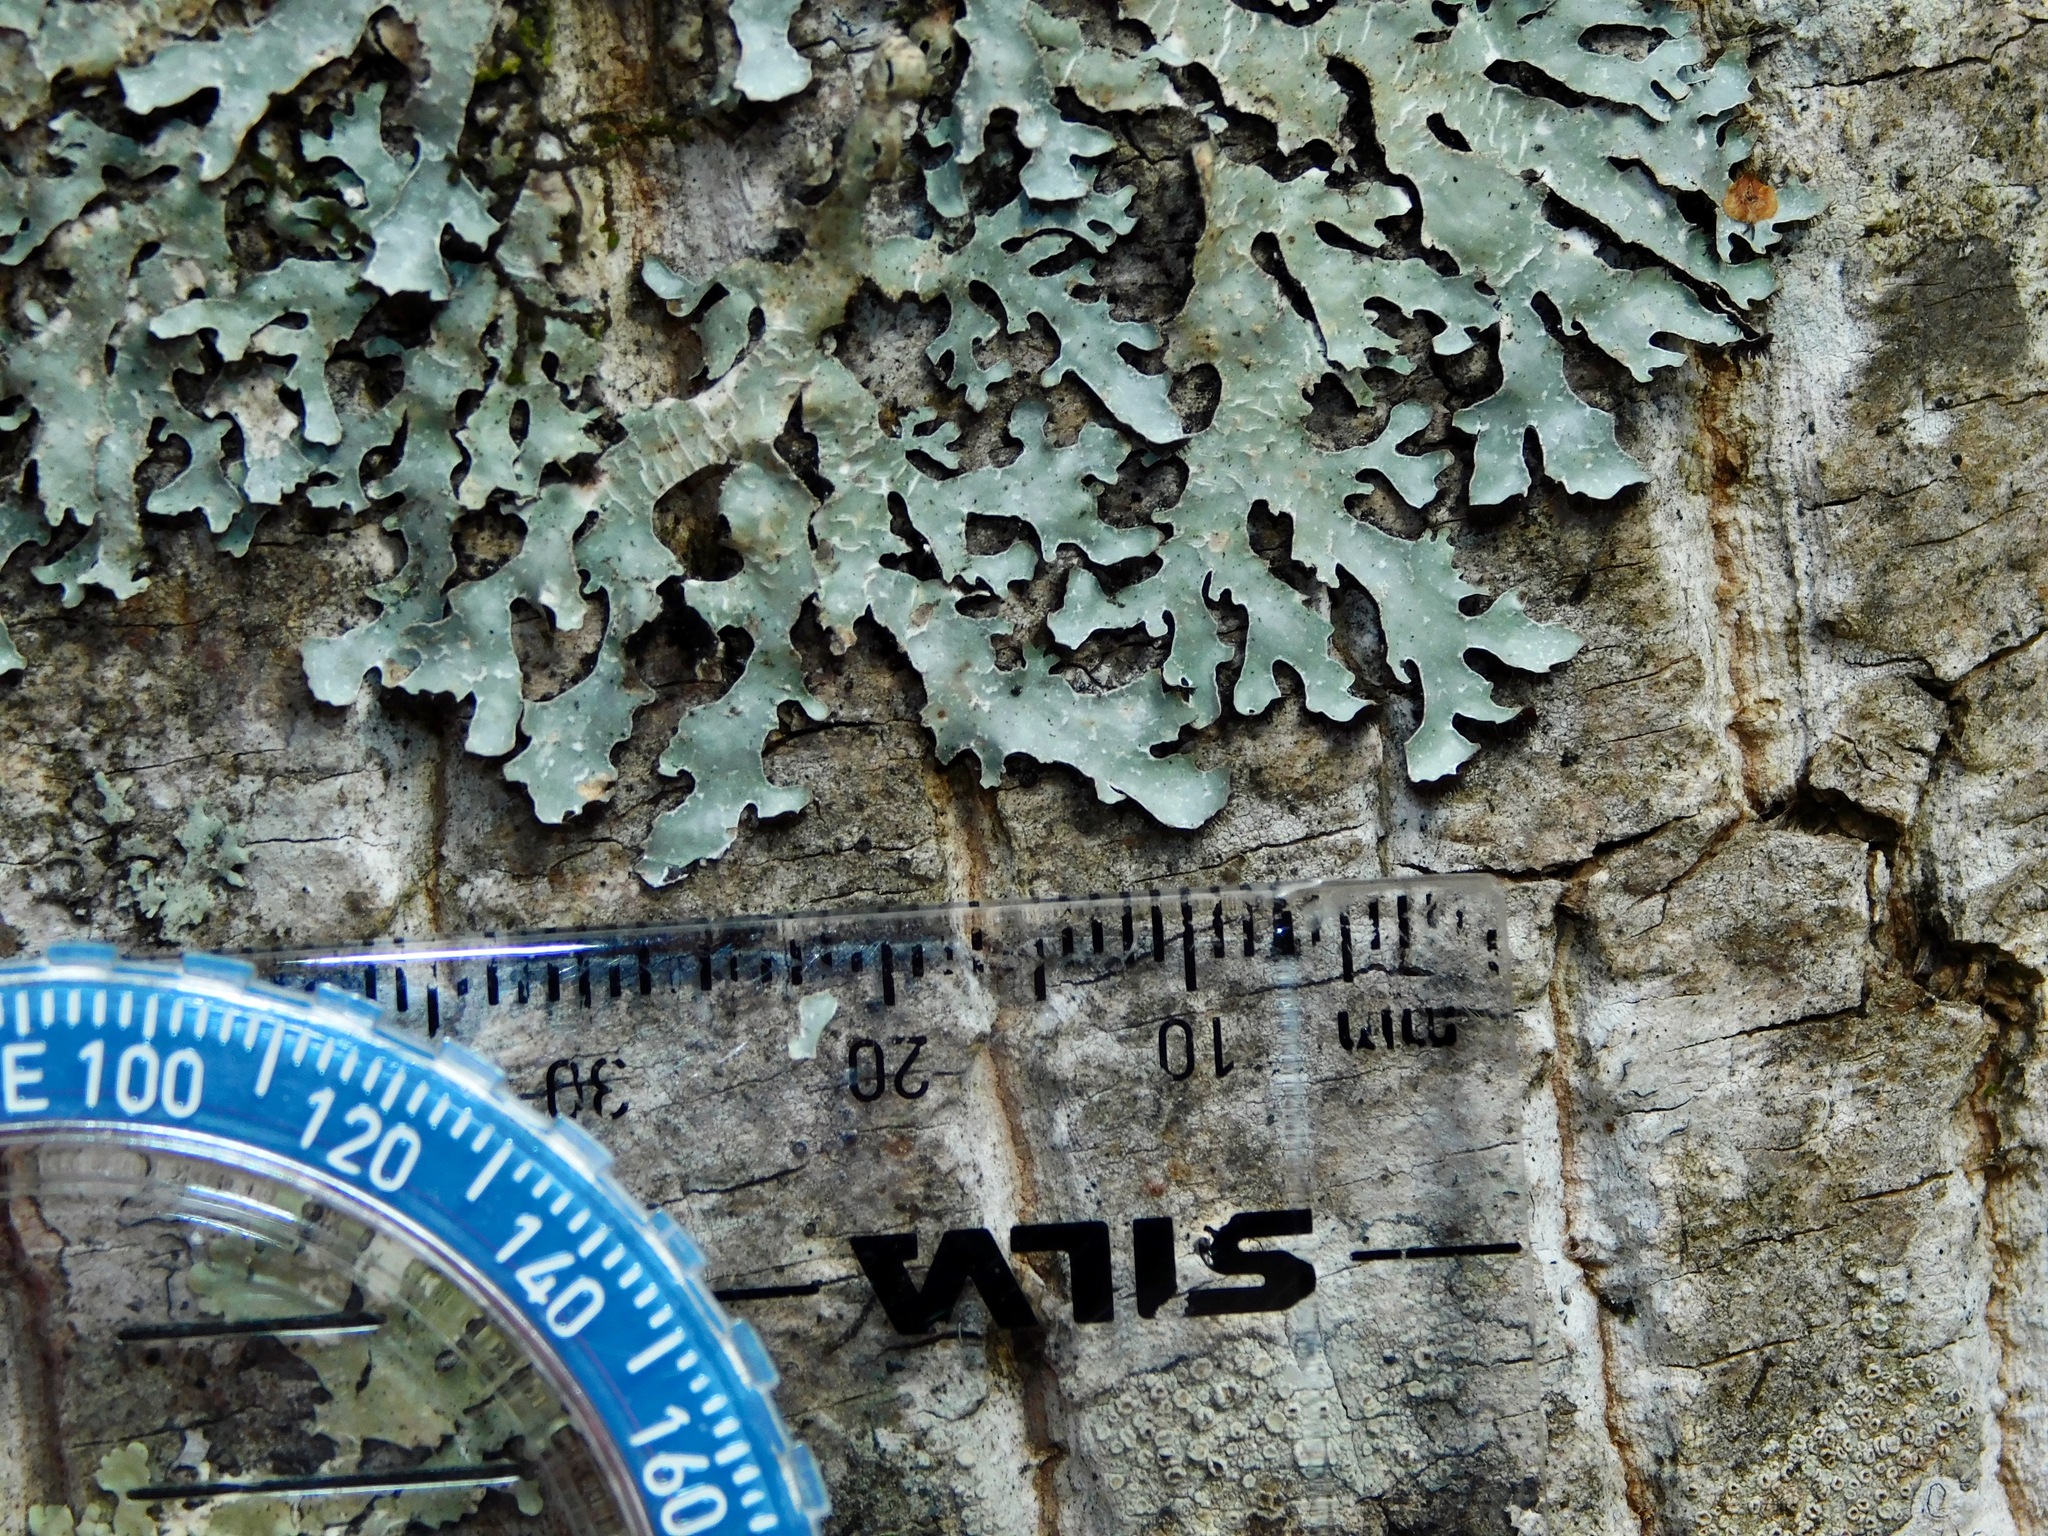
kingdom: Fungi
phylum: Ascomycota
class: Lecanoromycetes
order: Lecanorales
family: Parmeliaceae
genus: Parmelia
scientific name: Parmelia sulcata
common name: Netted shield lichen
